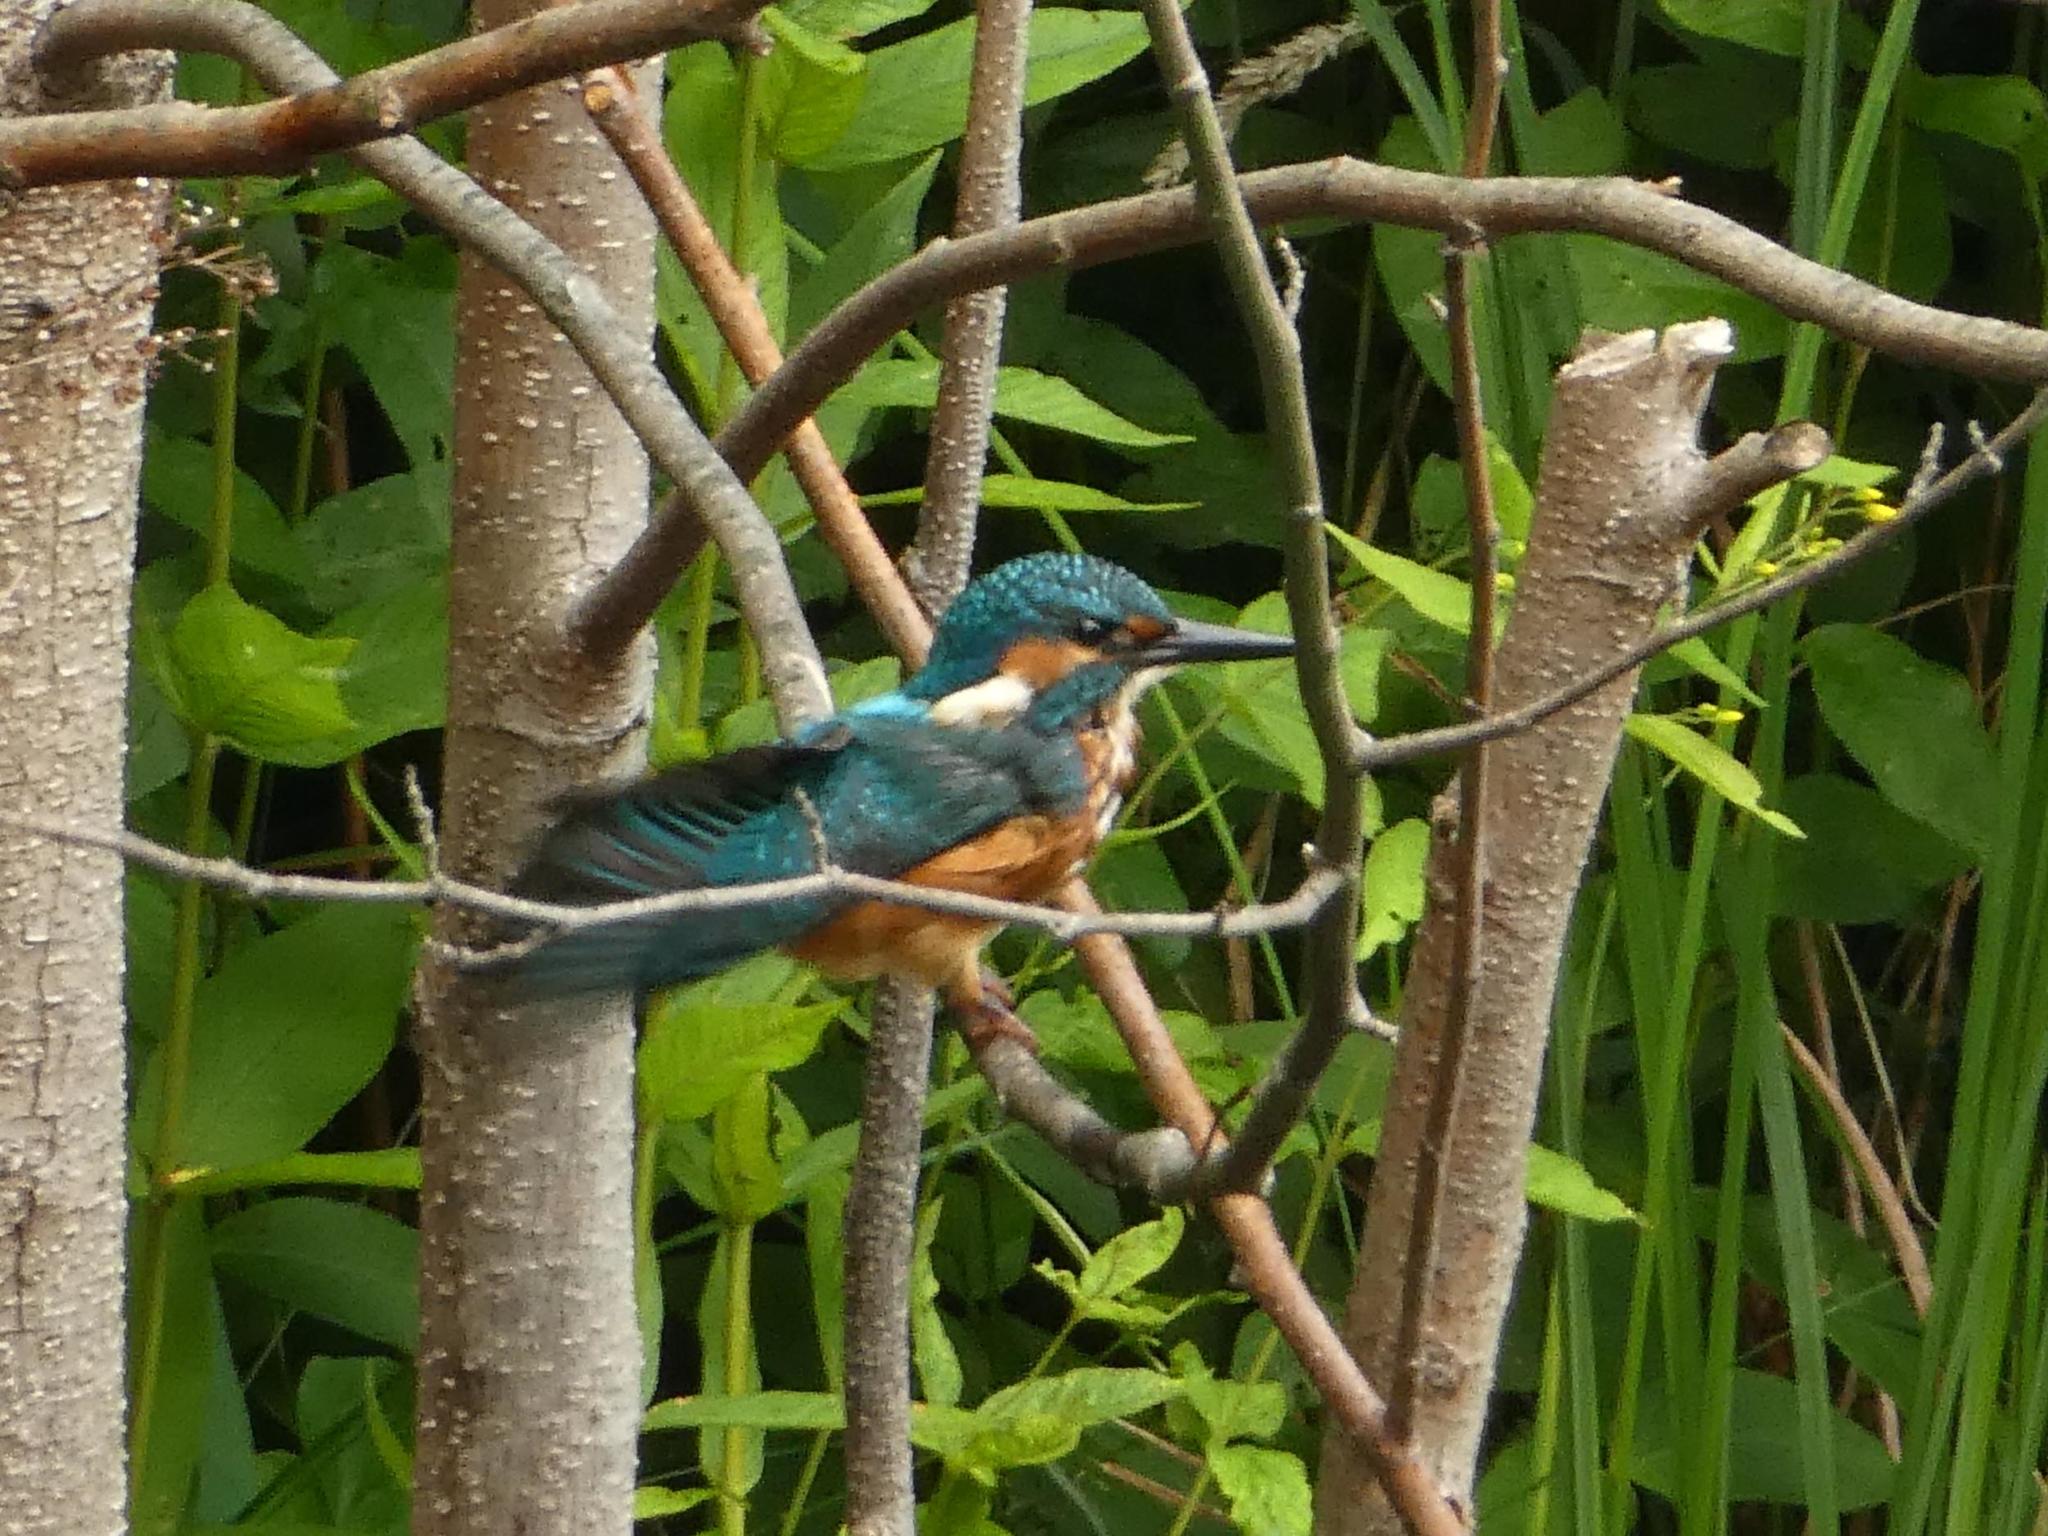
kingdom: Animalia
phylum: Chordata
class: Aves
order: Coraciiformes
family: Alcedinidae
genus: Alcedo
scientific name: Alcedo atthis
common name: Common kingfisher
